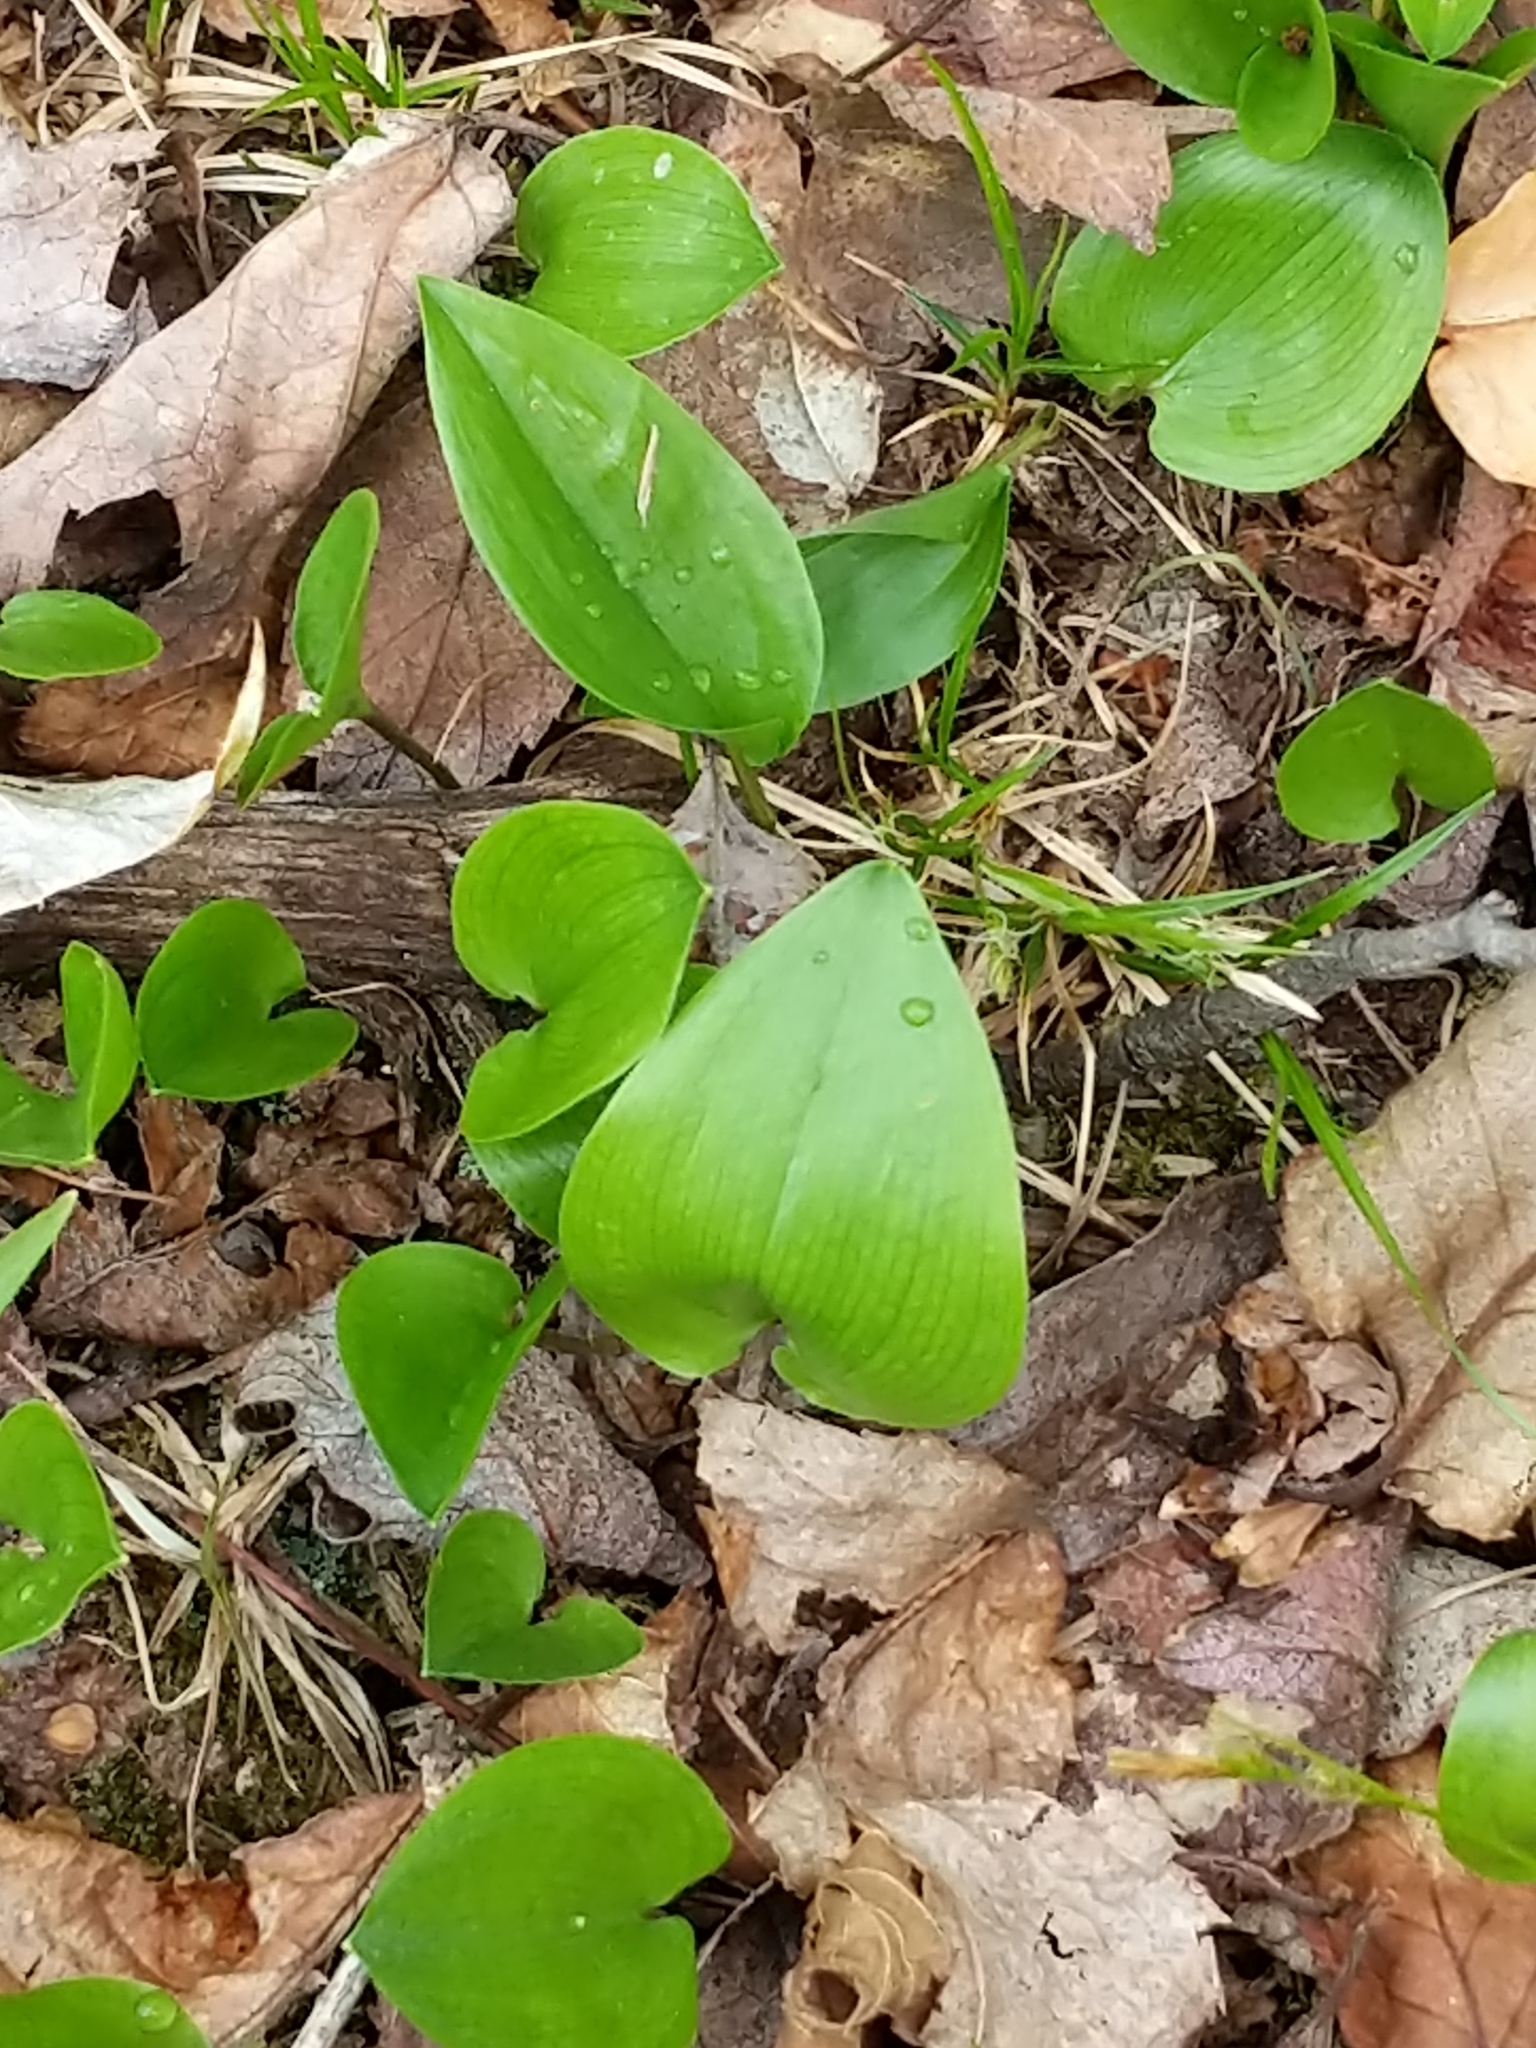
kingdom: Plantae
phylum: Tracheophyta
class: Liliopsida
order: Asparagales
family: Asparagaceae
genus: Maianthemum
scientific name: Maianthemum canadense
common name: False lily-of-the-valley
